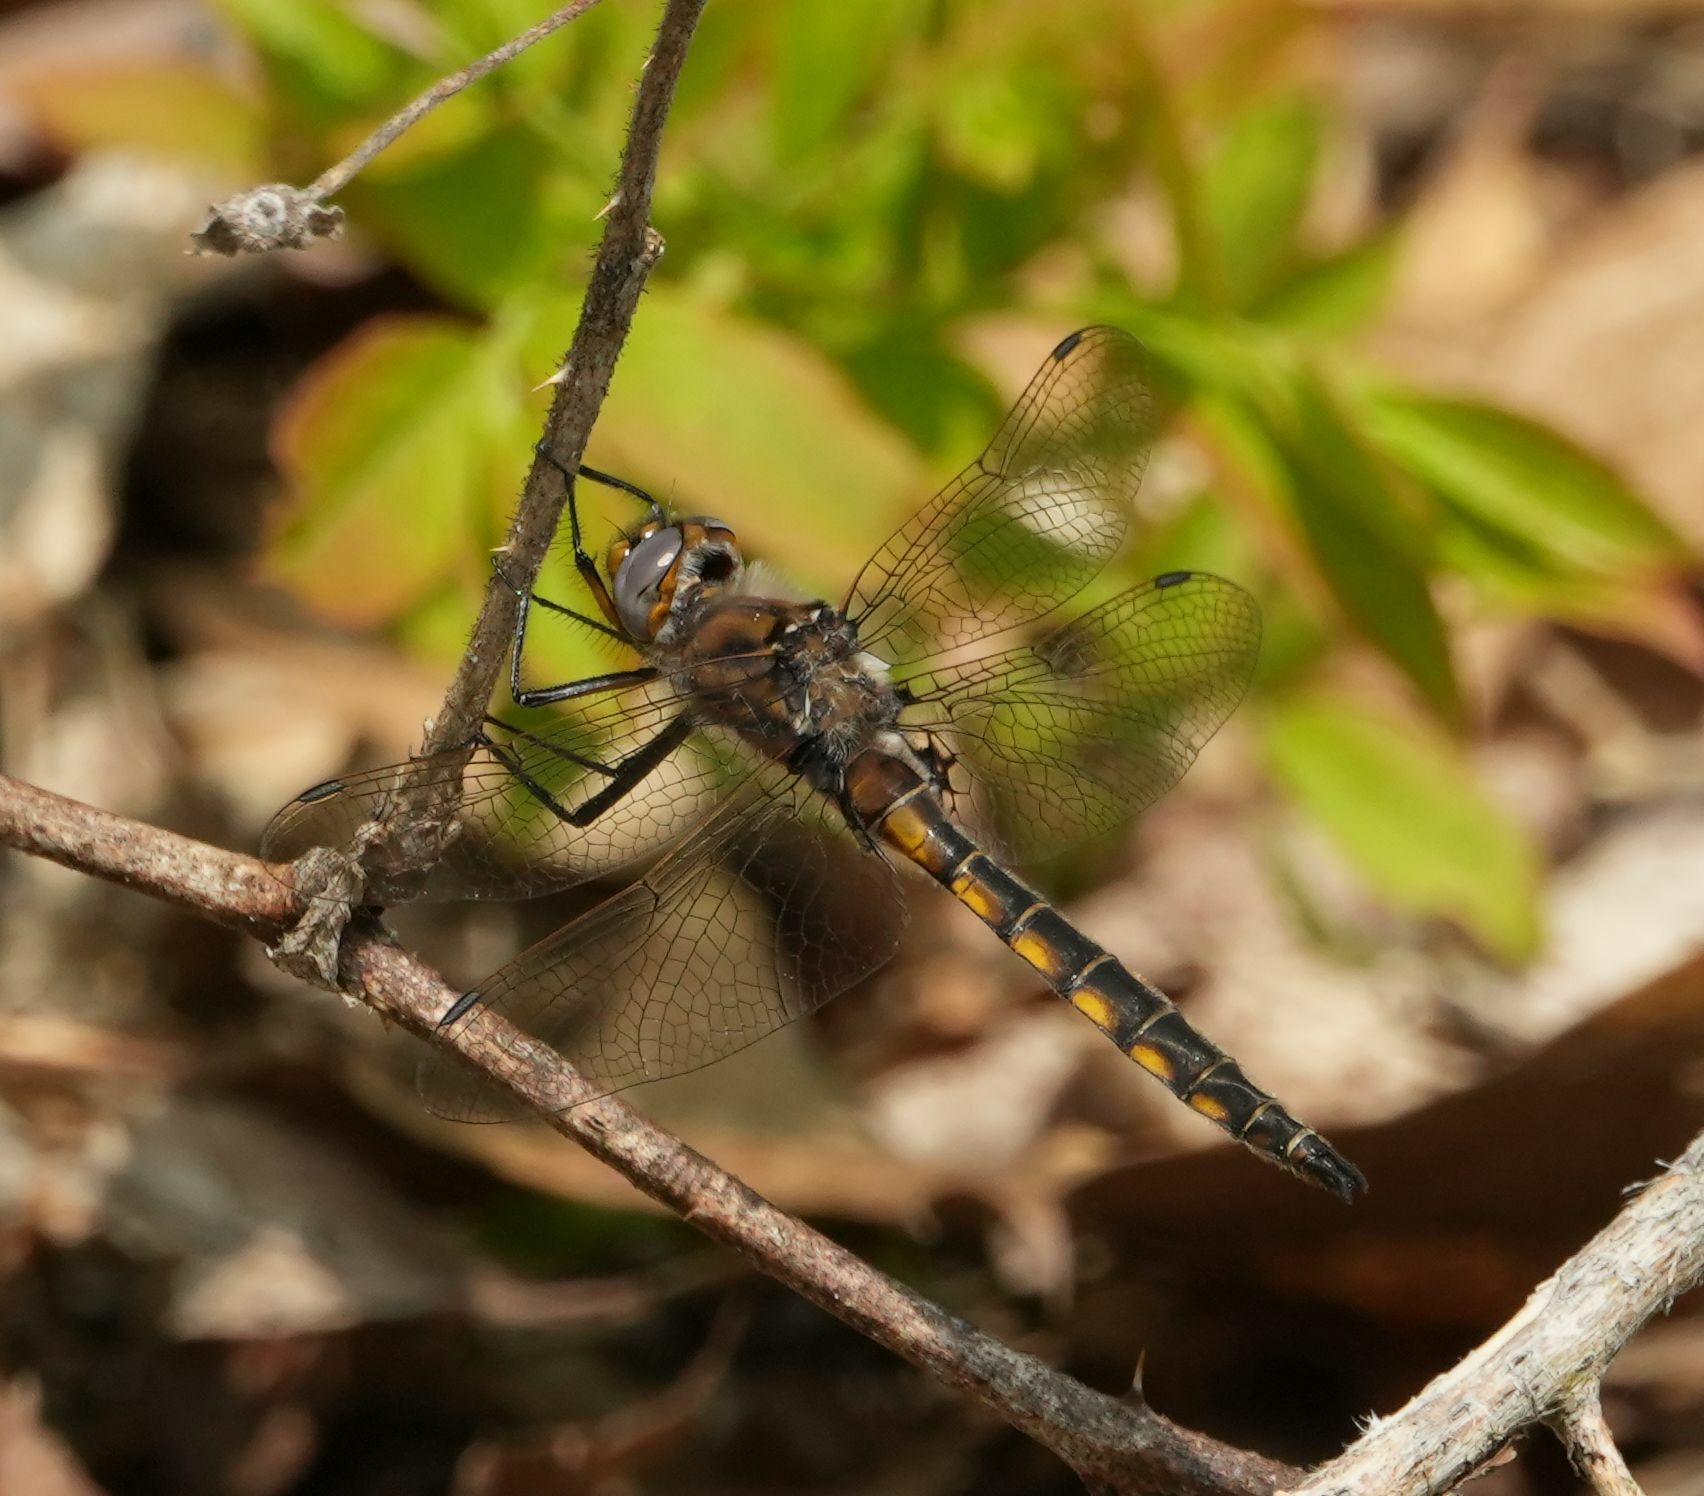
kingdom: Animalia
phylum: Arthropoda
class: Insecta
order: Odonata
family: Corduliidae
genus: Epitheca
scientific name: Epitheca canis
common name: Beaverpond baskettail
